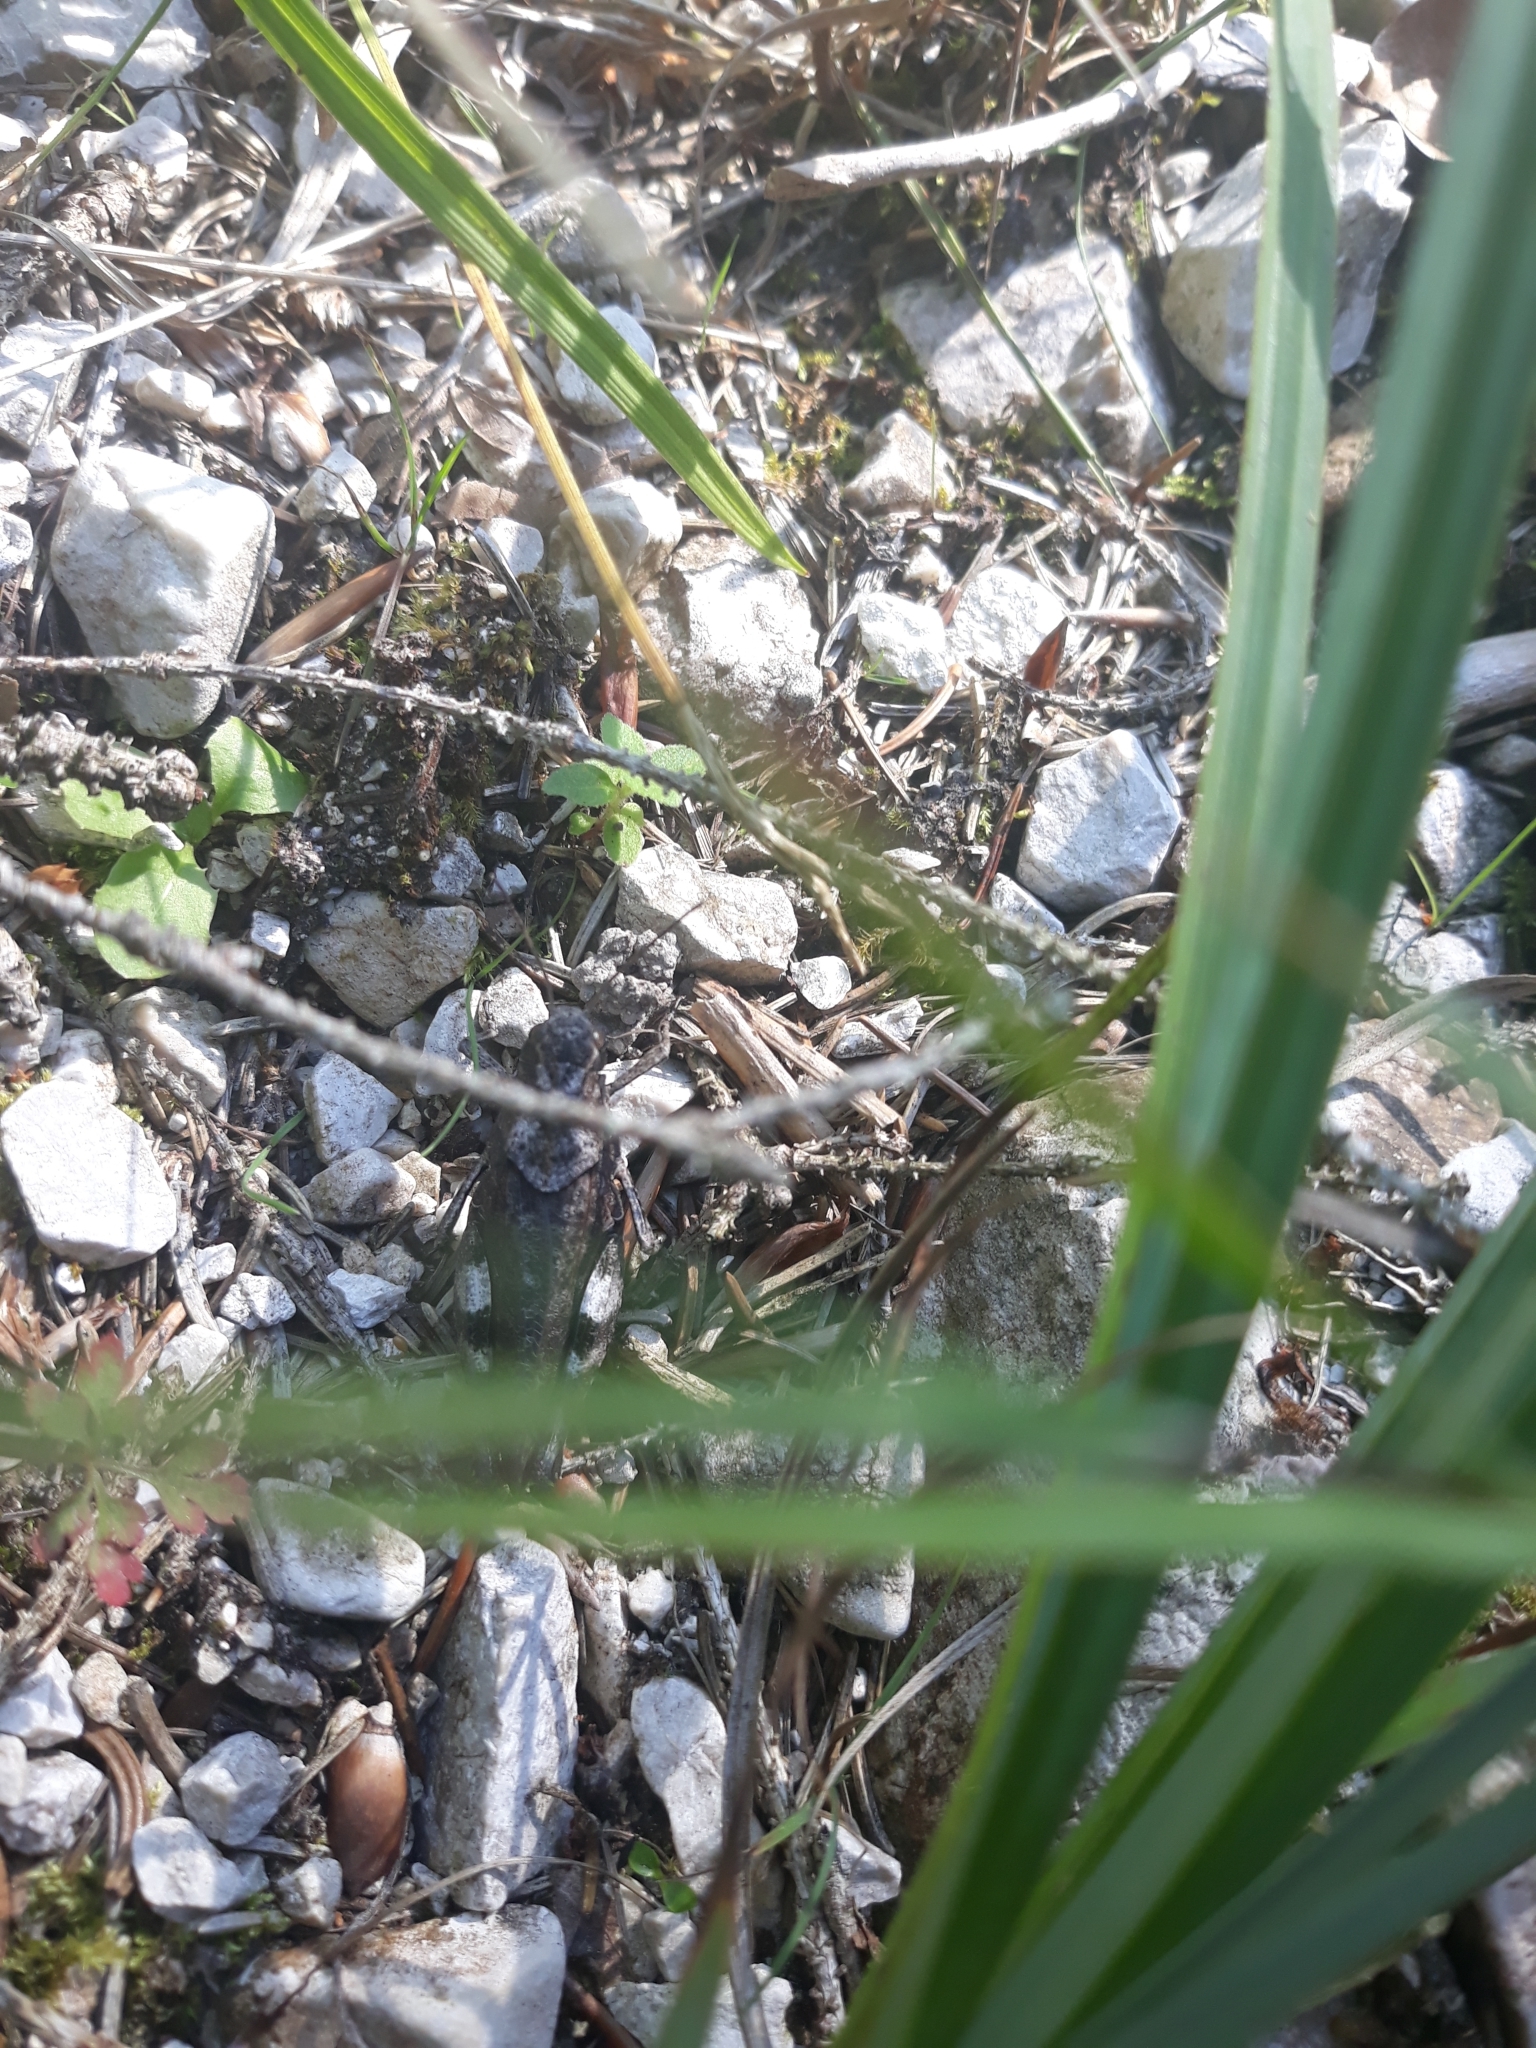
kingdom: Animalia
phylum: Arthropoda
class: Insecta
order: Orthoptera
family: Acrididae
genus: Oedipoda
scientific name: Oedipoda caerulescens
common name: Blue-winged grasshopper
